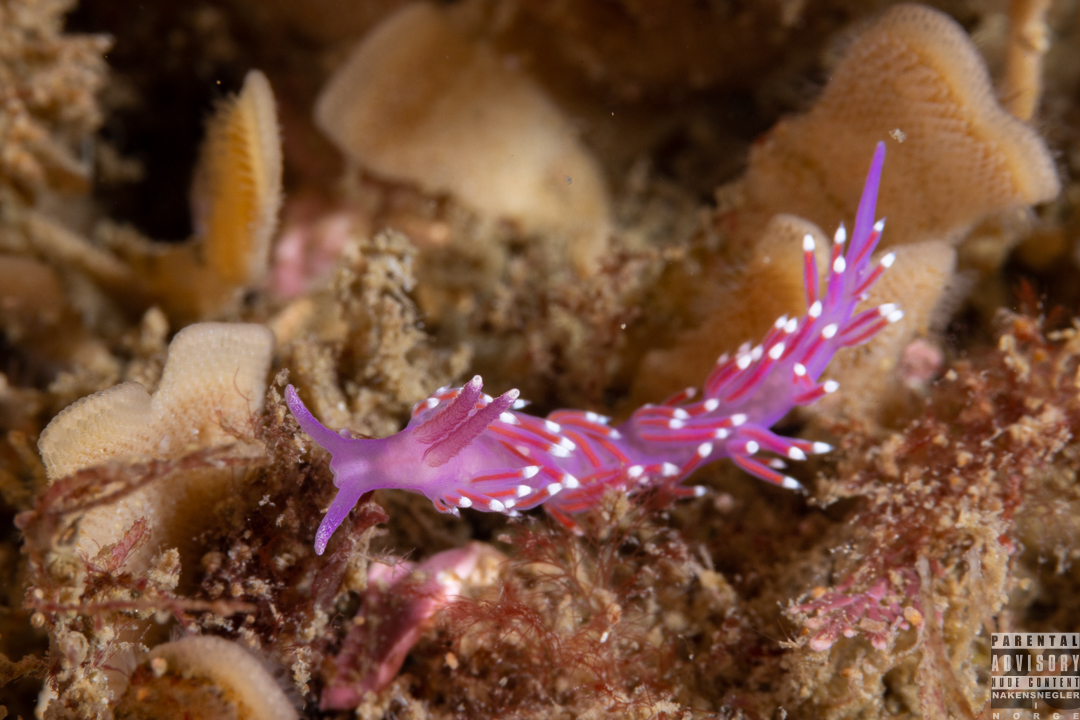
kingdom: Animalia
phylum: Mollusca
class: Gastropoda
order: Nudibranchia
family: Flabellinidae
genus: Edmundsella
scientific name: Edmundsella pedata
